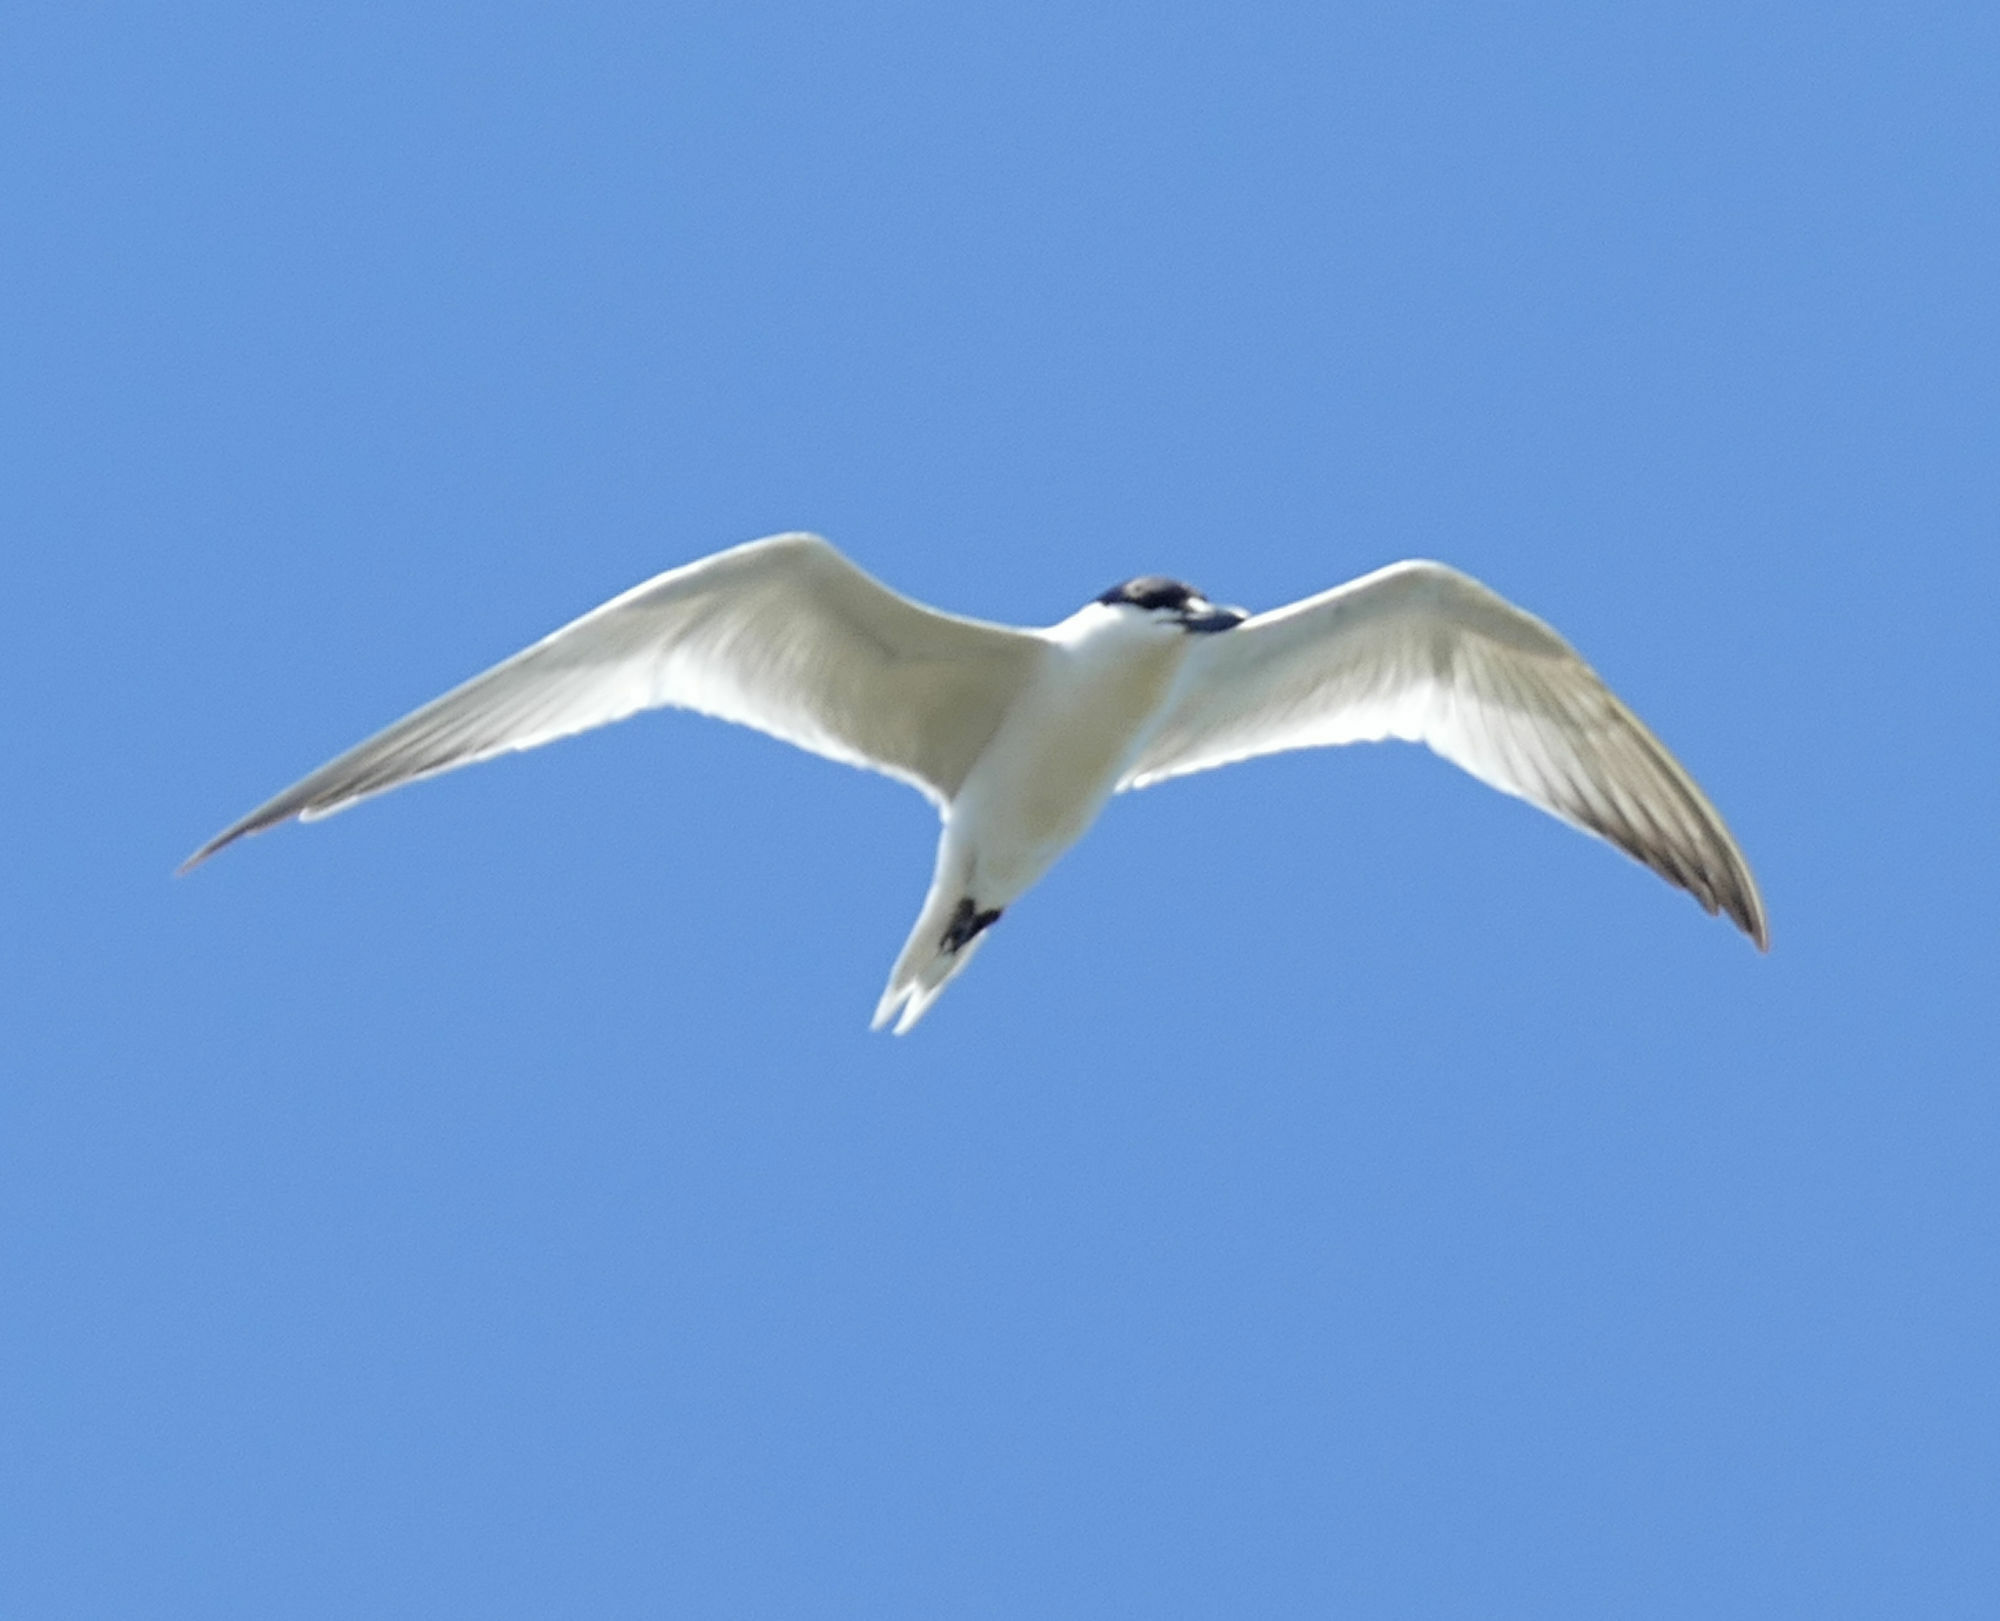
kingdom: Animalia
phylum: Chordata
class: Aves
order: Charadriiformes
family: Laridae
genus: Gelochelidon
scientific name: Gelochelidon nilotica
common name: Gull-billed tern
